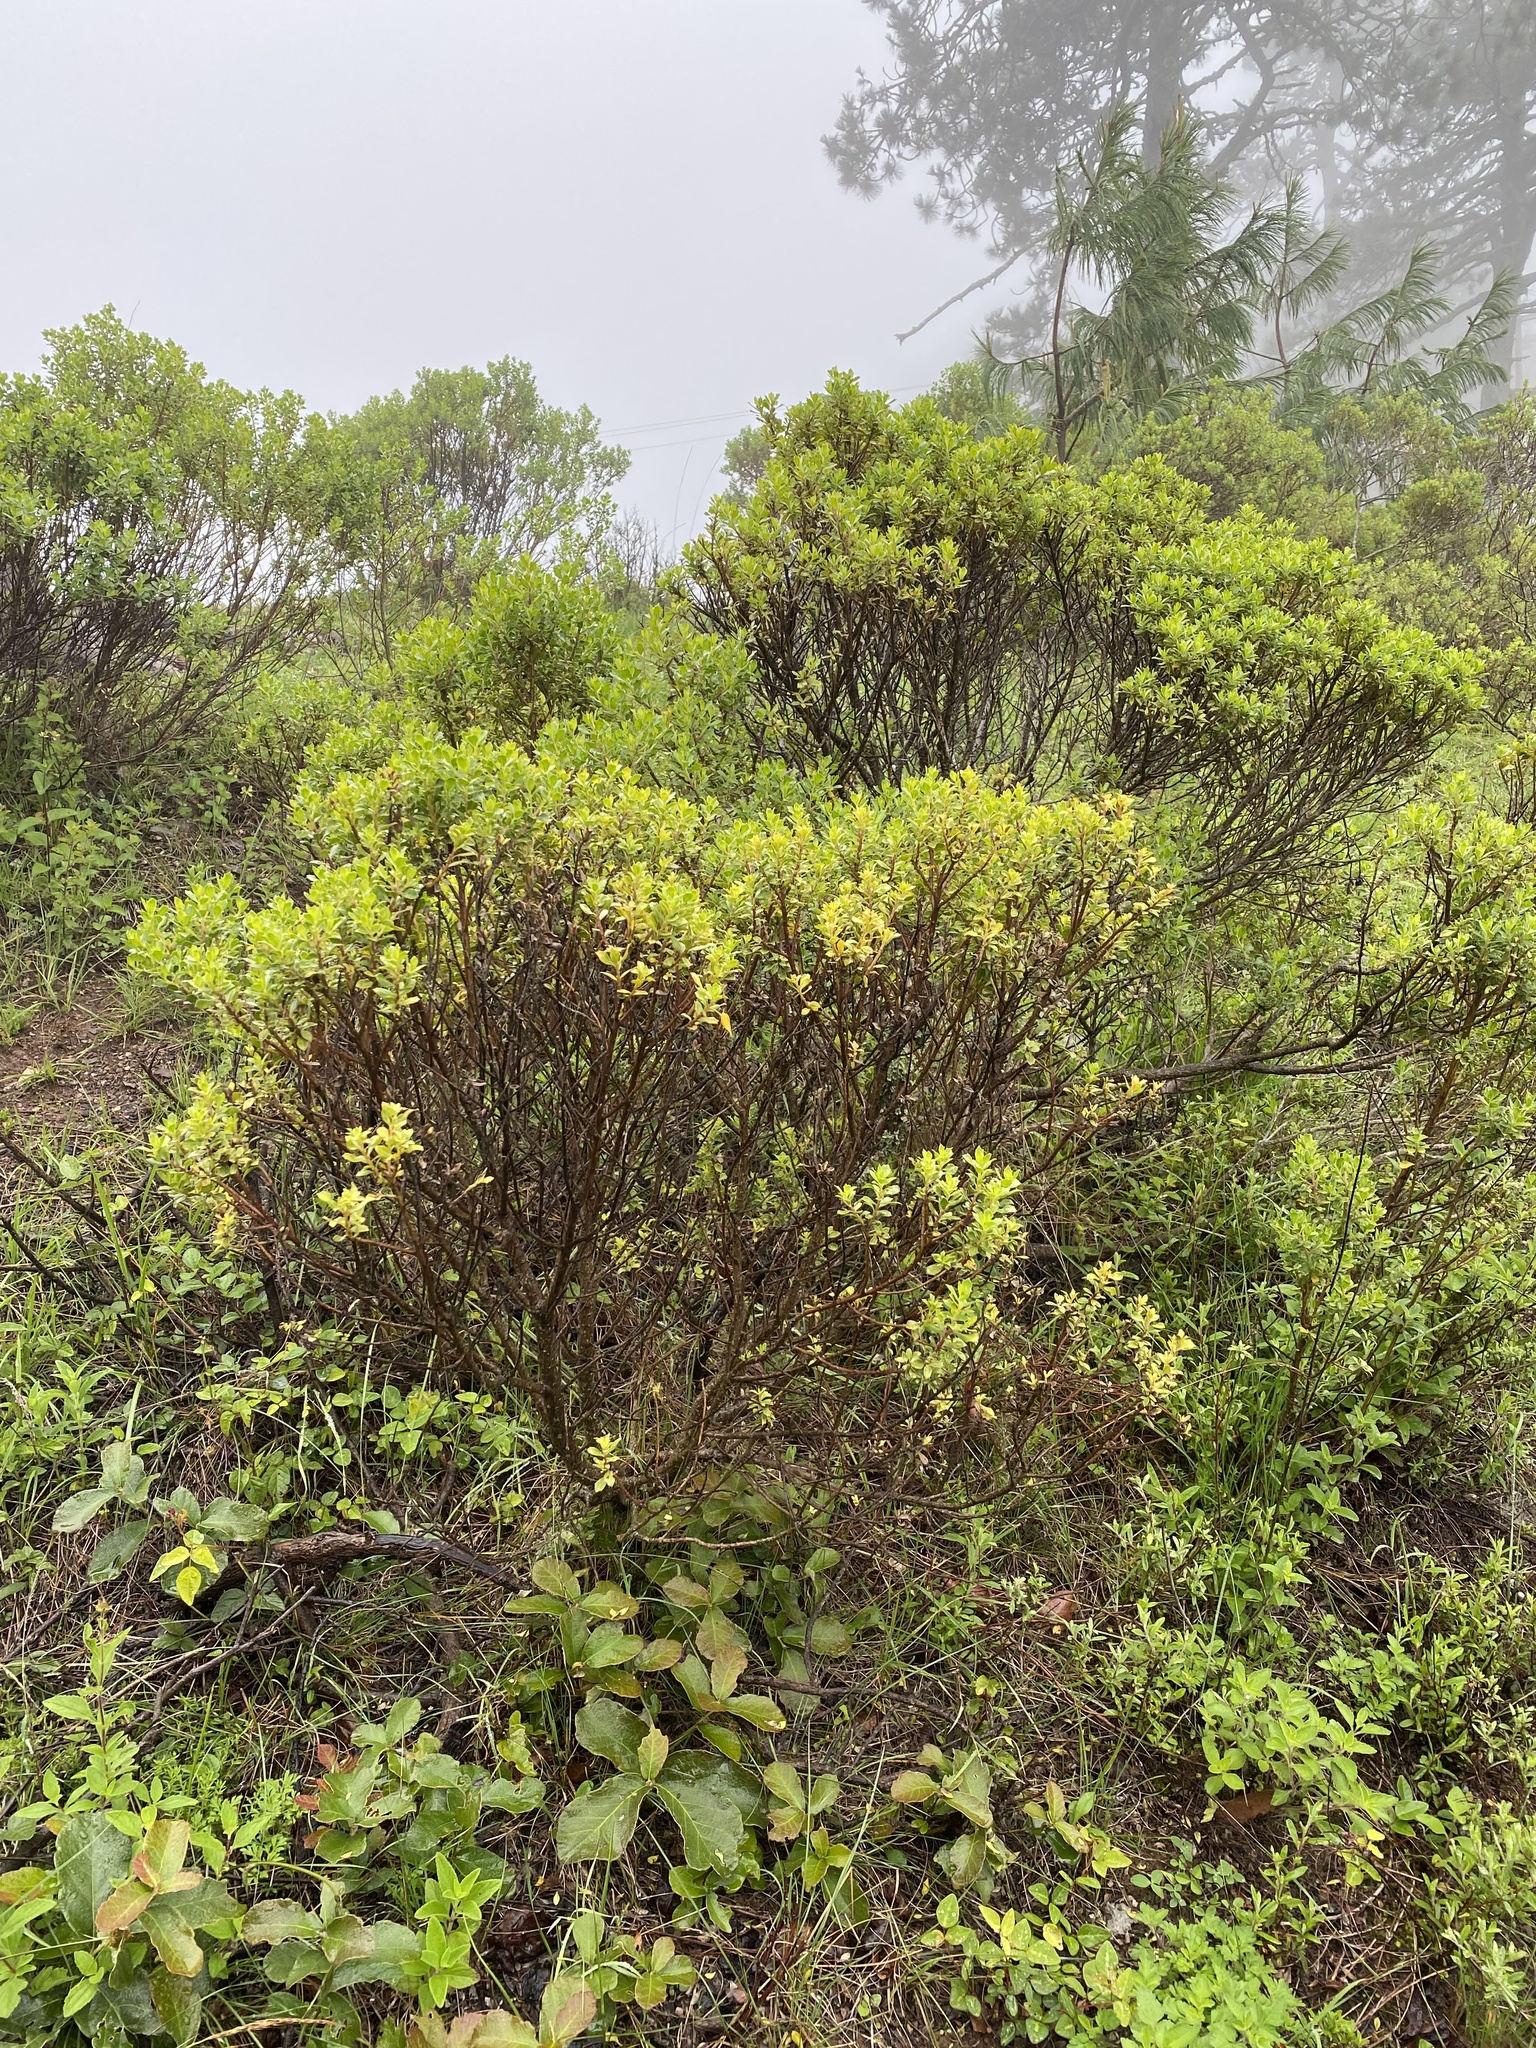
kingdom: Plantae
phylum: Tracheophyta
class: Magnoliopsida
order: Asterales
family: Asteraceae
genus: Baccharis
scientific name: Baccharis conferta
